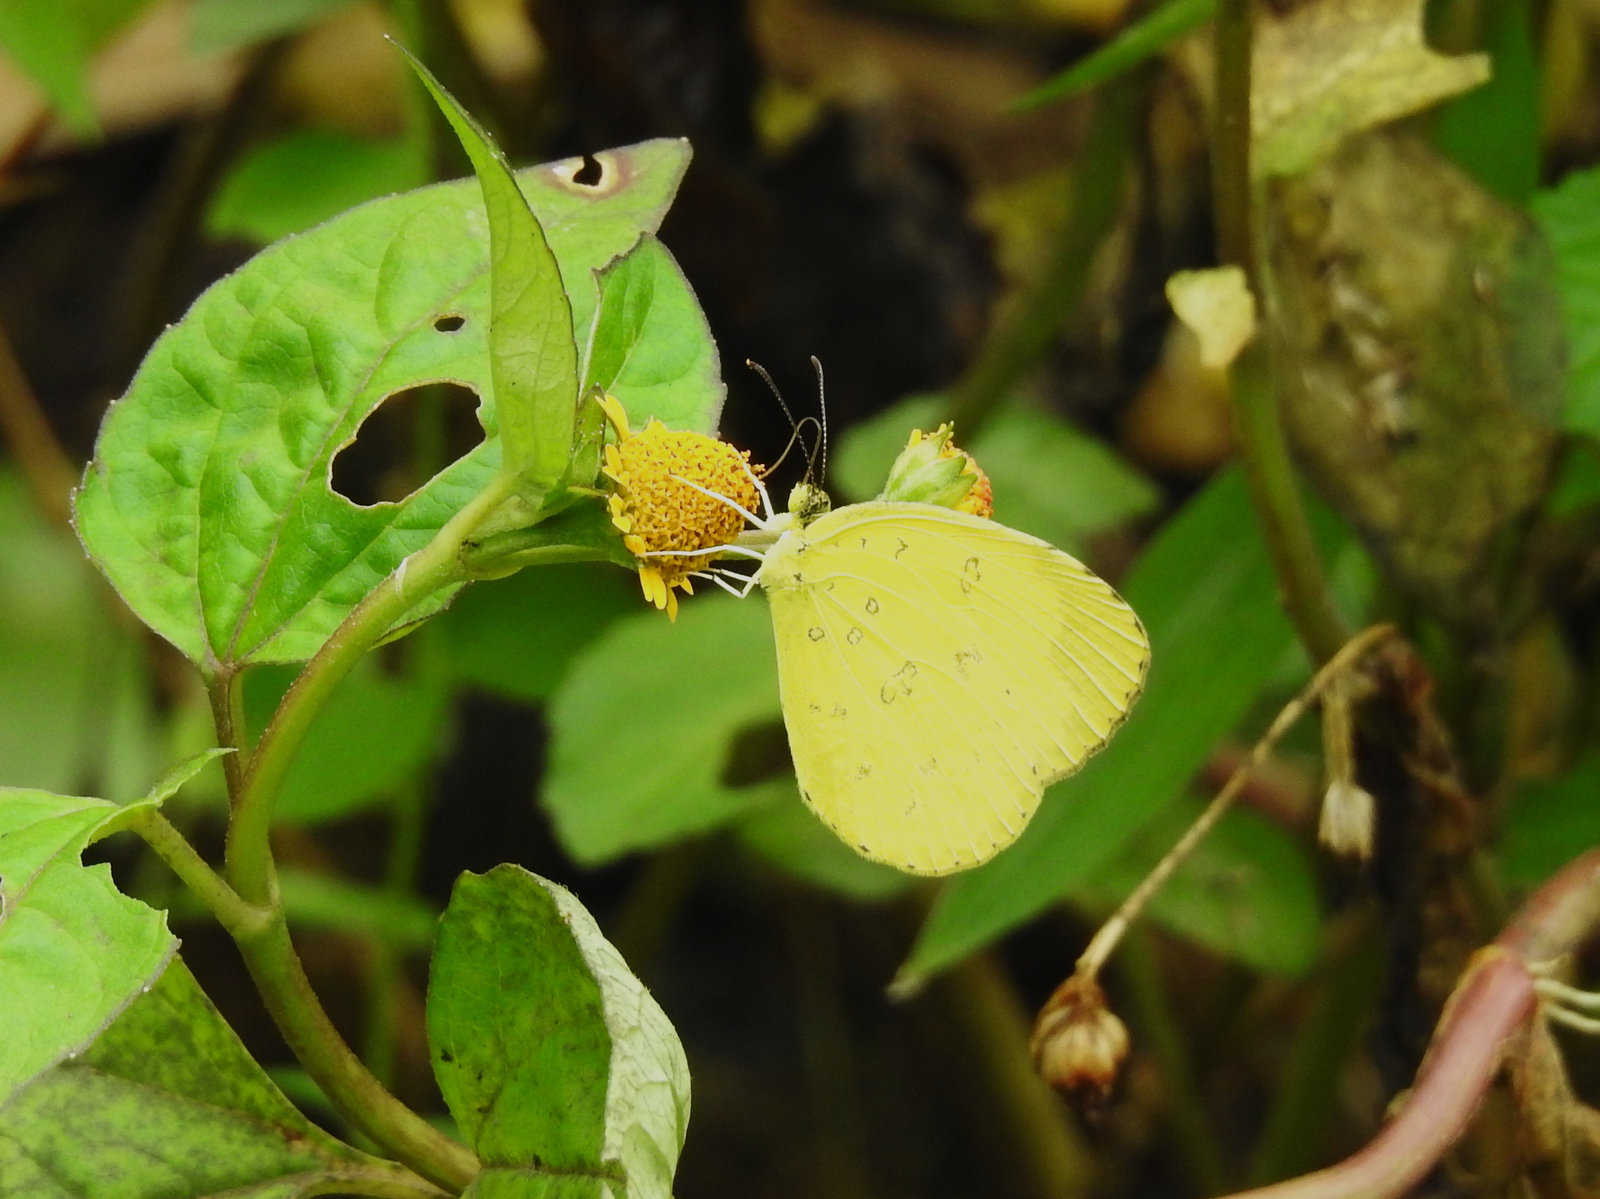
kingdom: Animalia
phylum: Arthropoda
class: Insecta
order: Lepidoptera
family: Pieridae
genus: Eurema
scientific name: Eurema blanda
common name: Three-spot grass yellow
